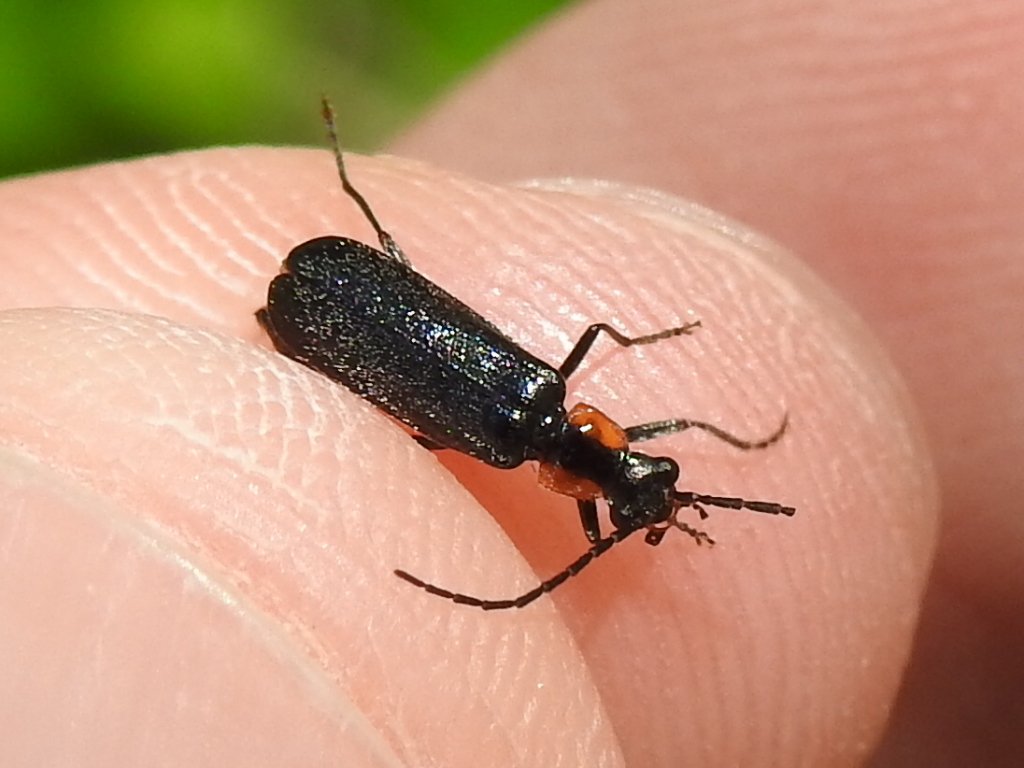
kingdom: Animalia
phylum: Arthropoda
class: Insecta
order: Coleoptera
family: Cantharidae
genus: Rhagonycha
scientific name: Rhagonycha lineola
